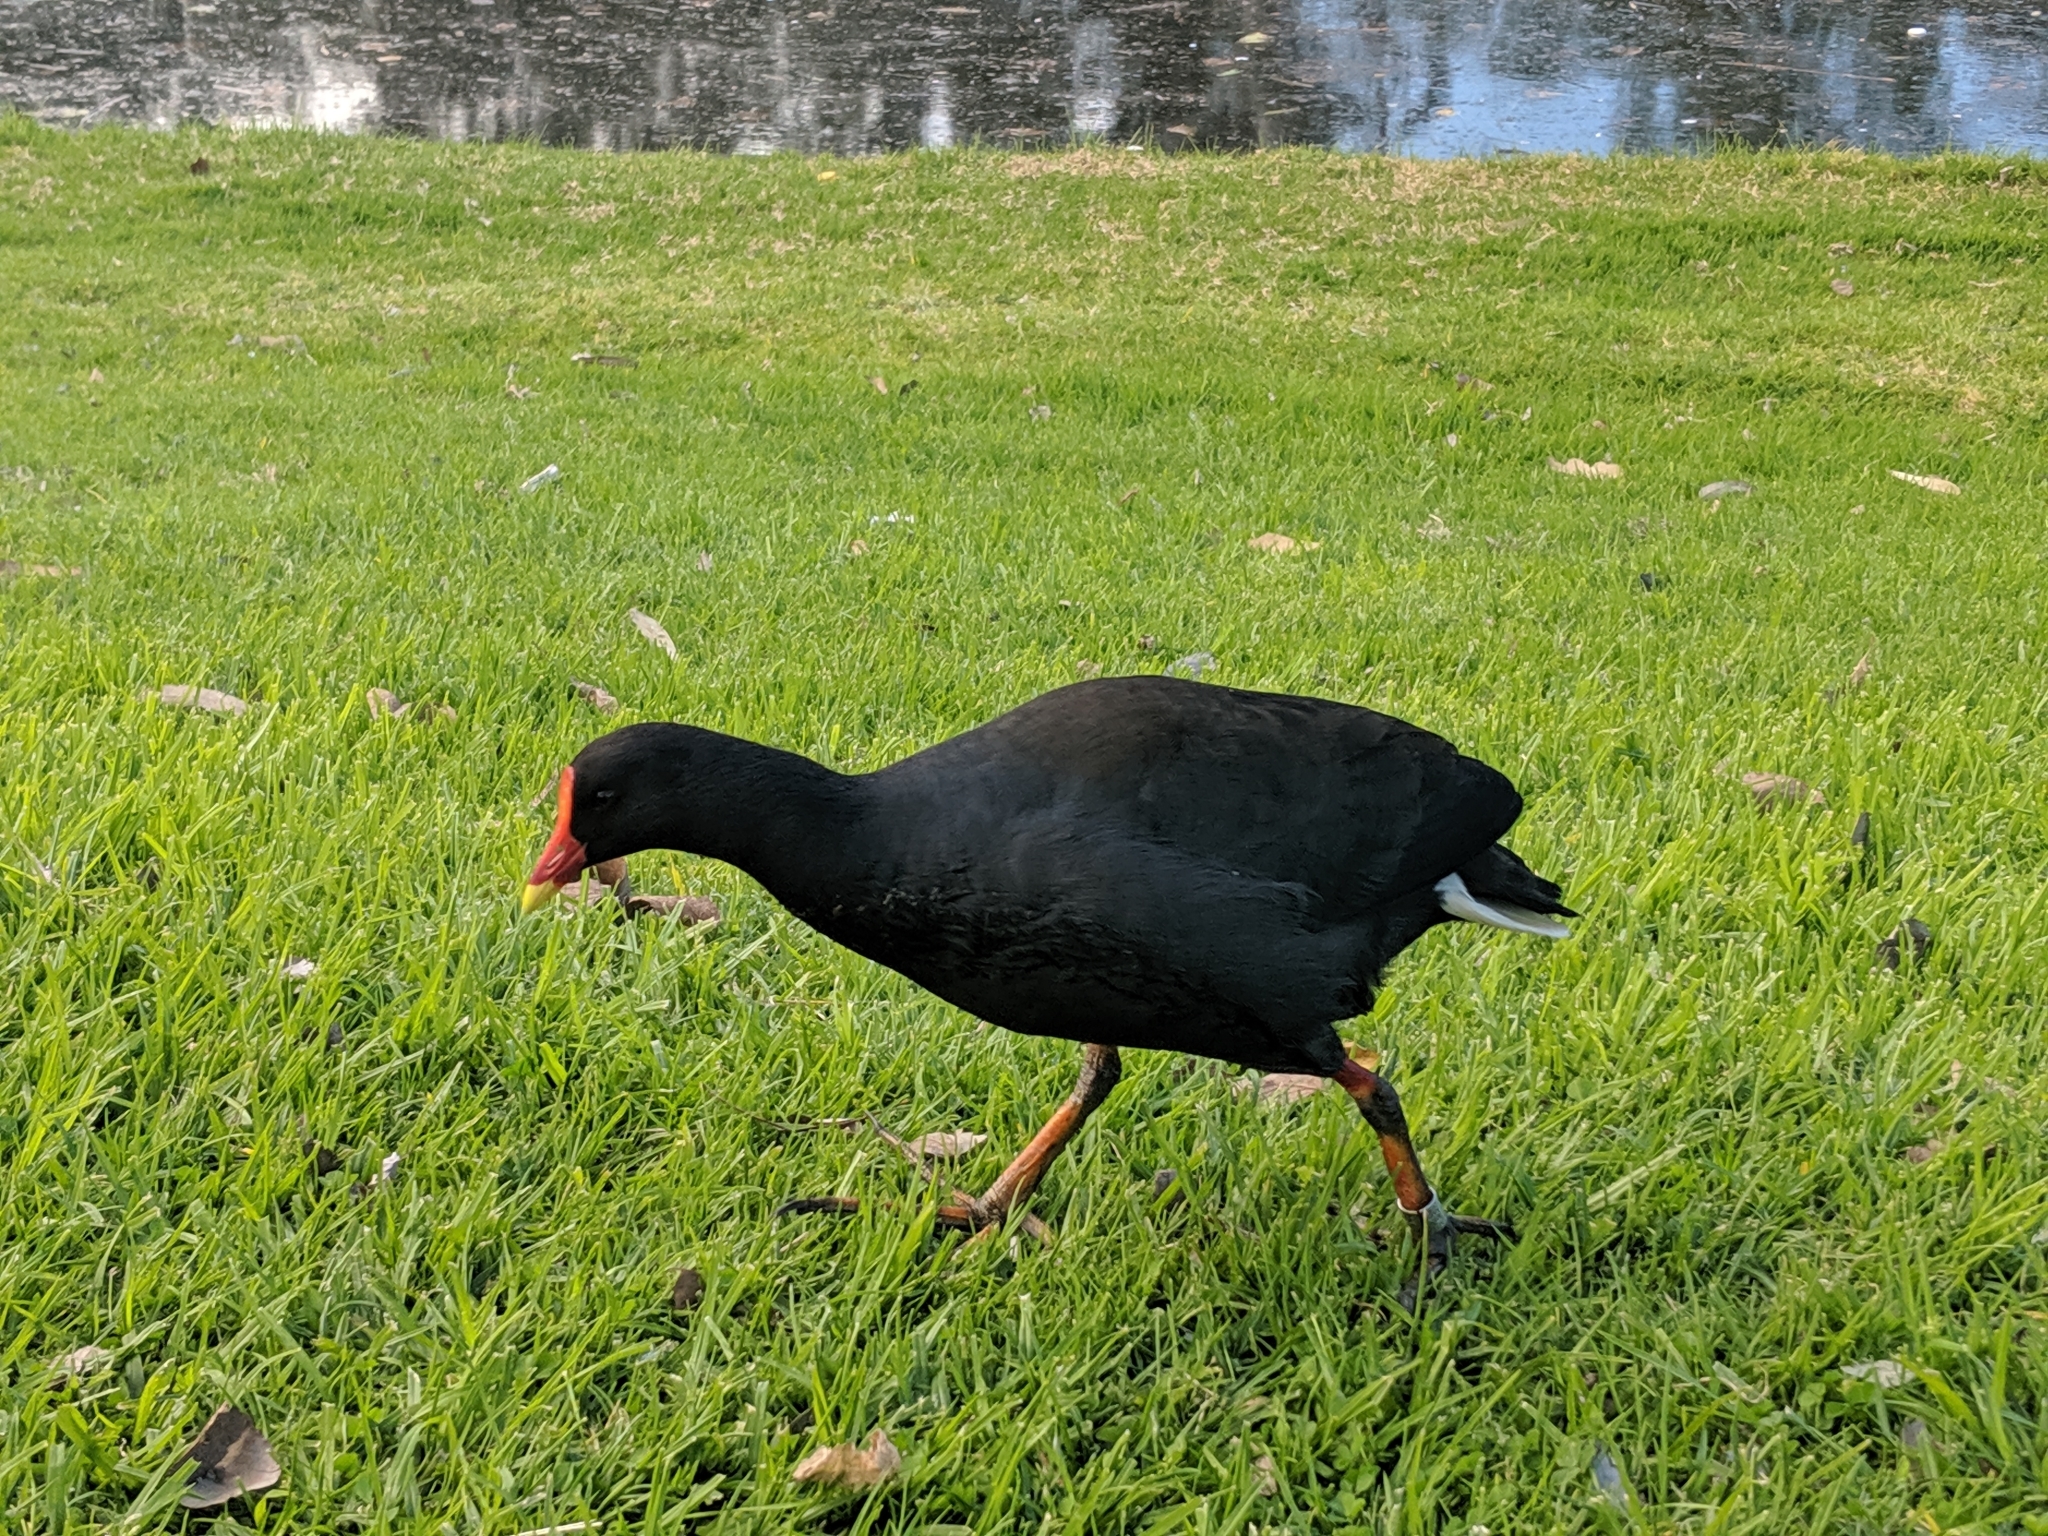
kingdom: Animalia
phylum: Chordata
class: Aves
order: Gruiformes
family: Rallidae
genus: Gallinula
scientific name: Gallinula tenebrosa
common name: Dusky moorhen
